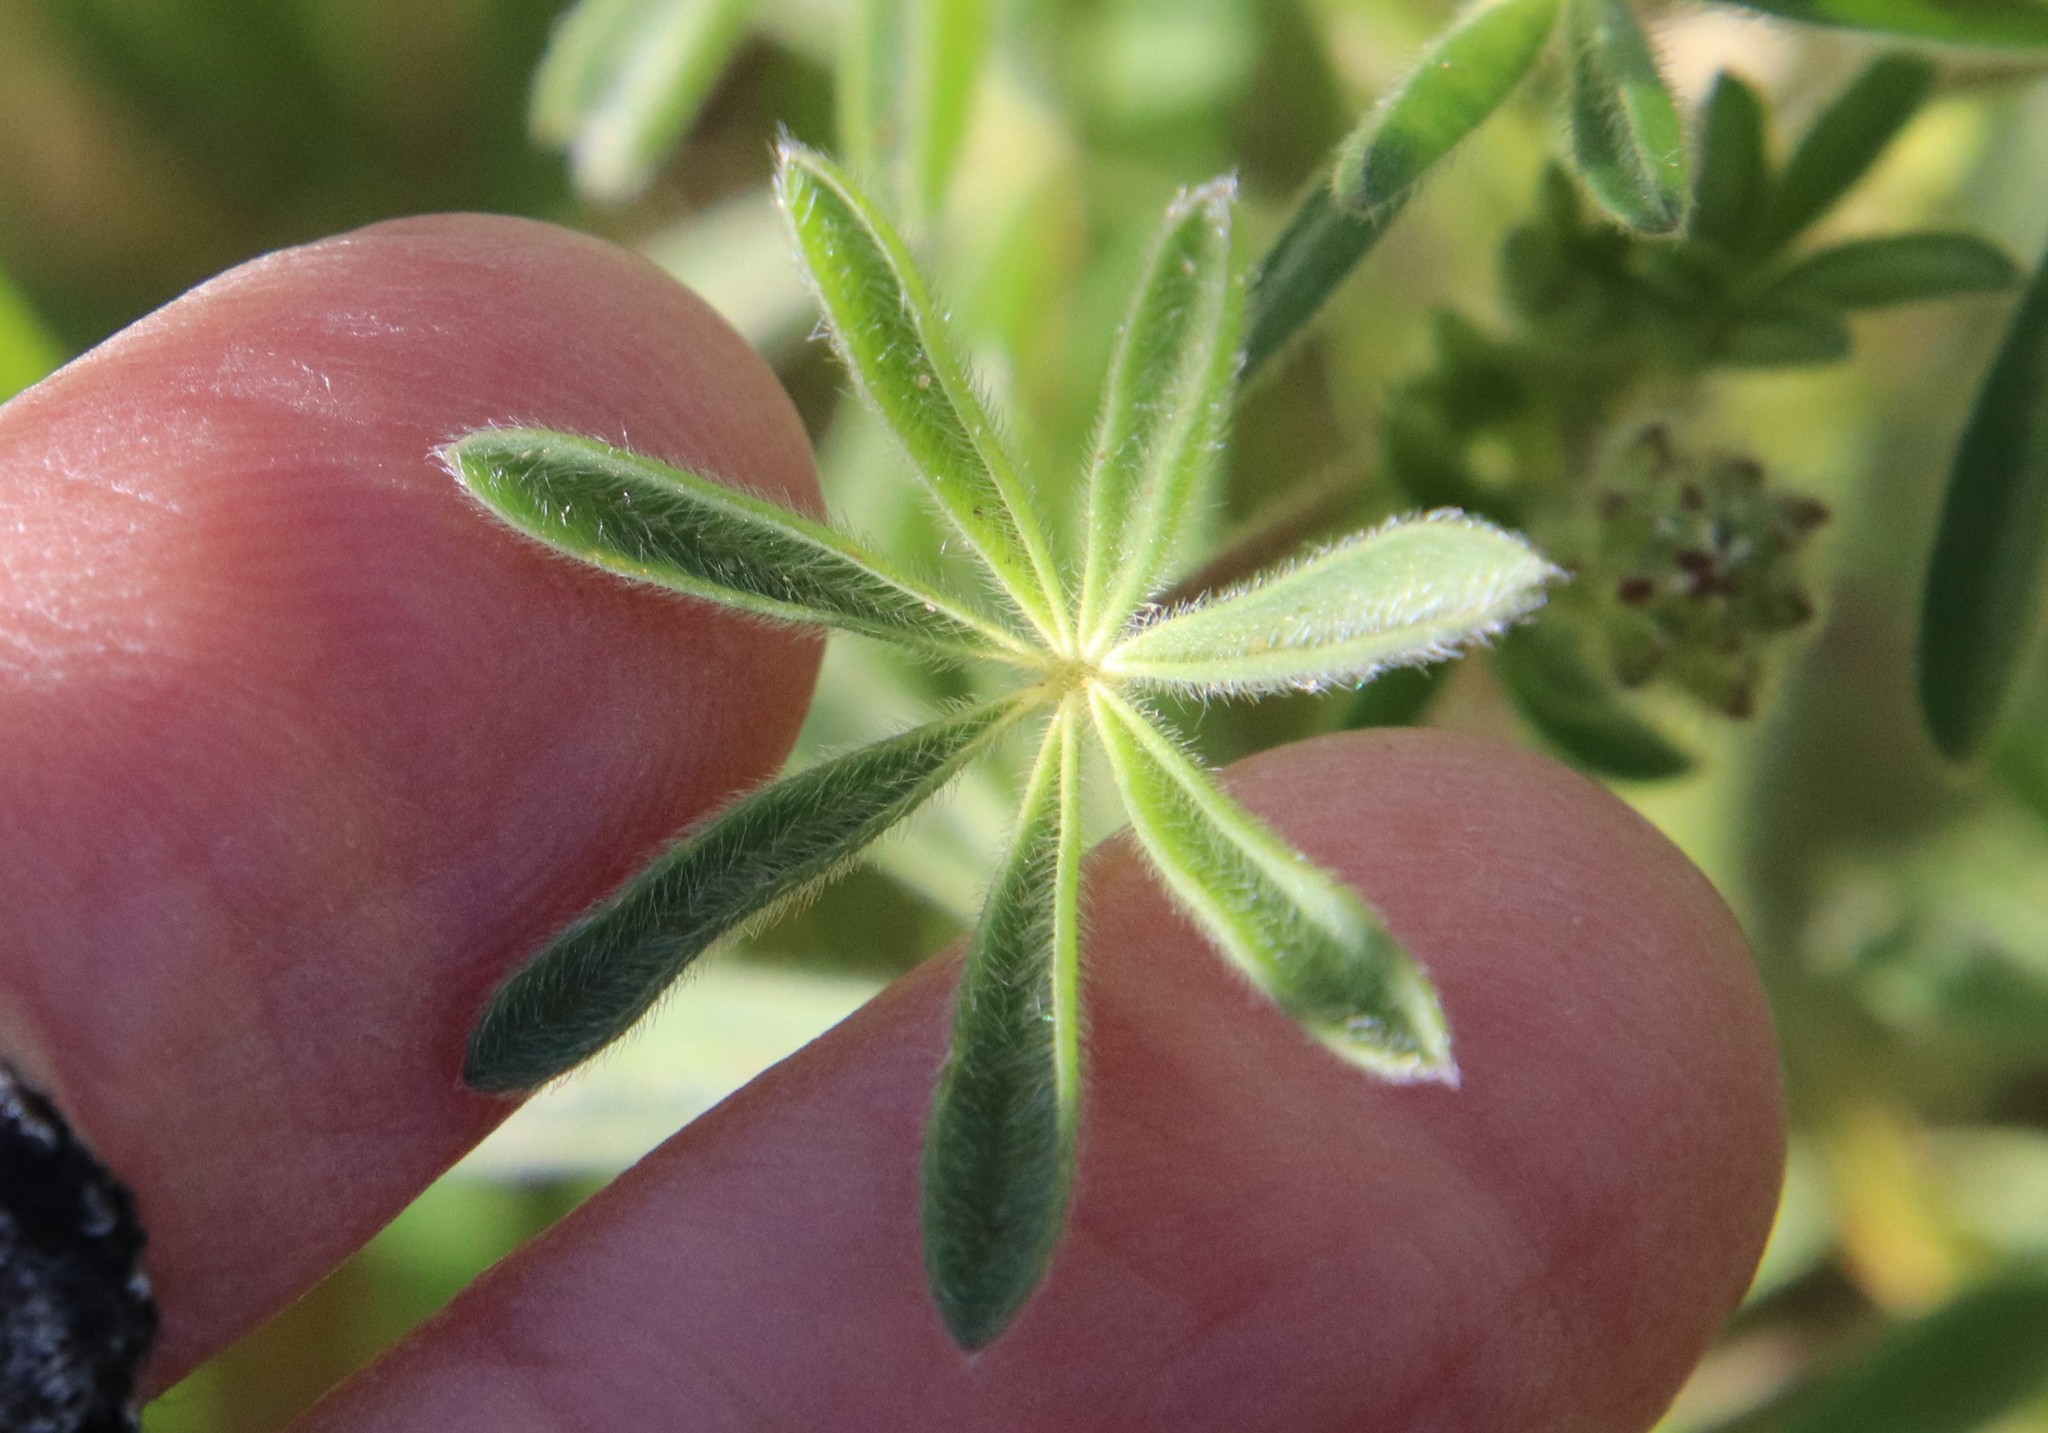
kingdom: Plantae
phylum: Tracheophyta
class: Magnoliopsida
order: Fabales
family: Fabaceae
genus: Lupinus
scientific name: Lupinus bicolor
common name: Miniature lupine
